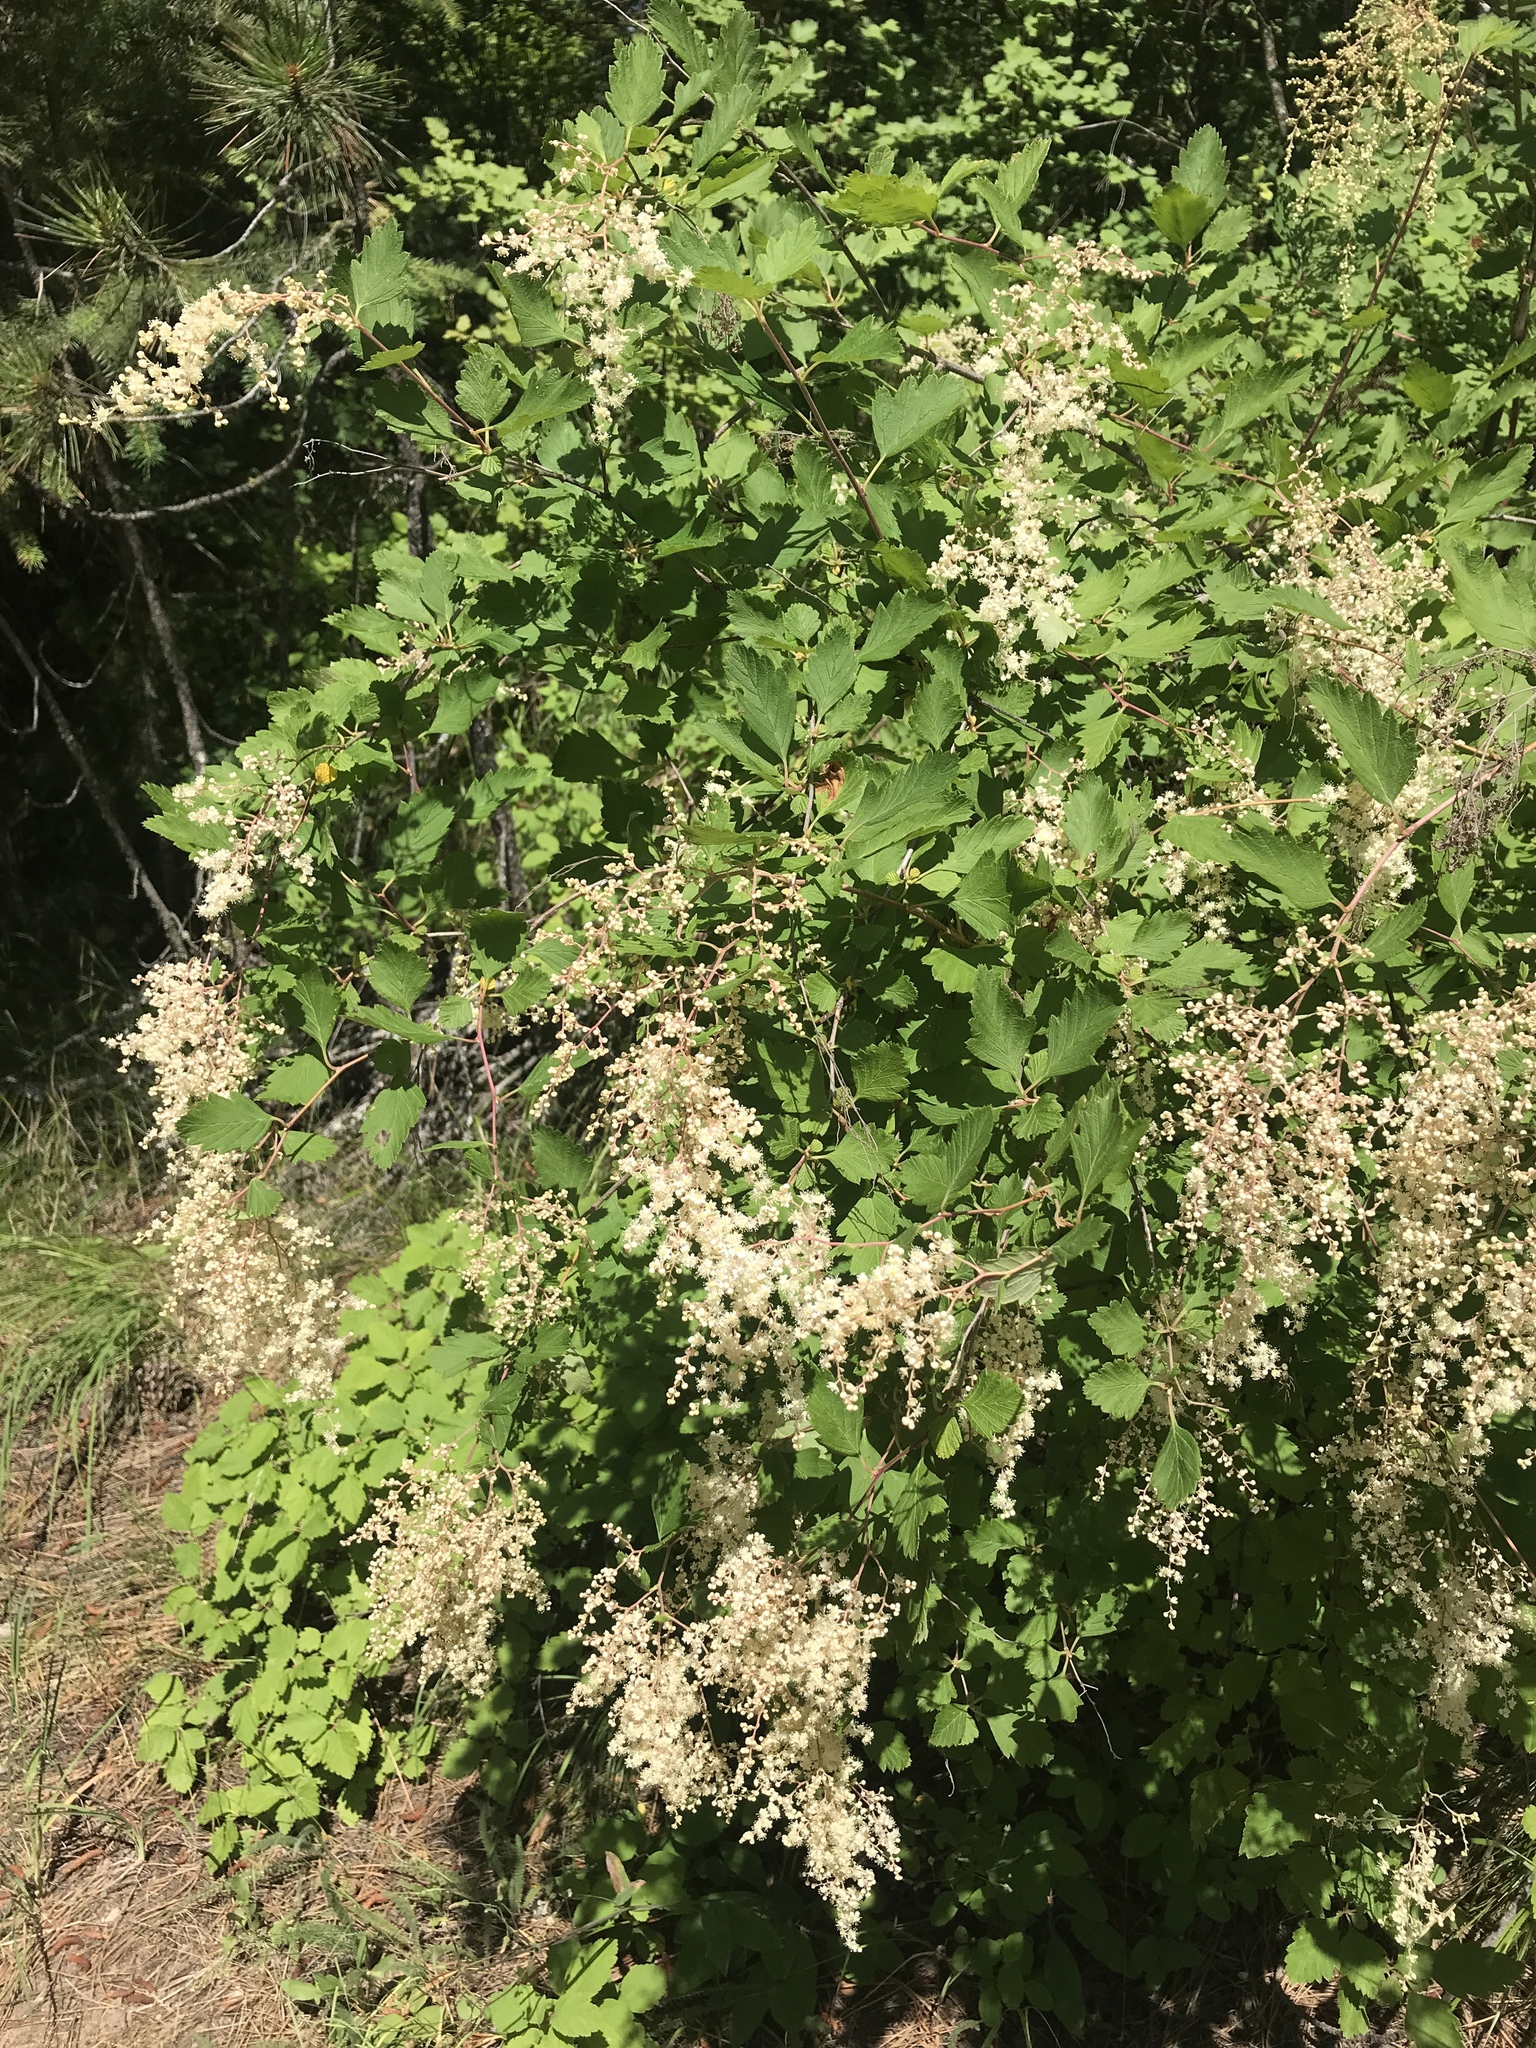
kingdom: Plantae
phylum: Tracheophyta
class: Magnoliopsida
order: Rosales
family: Rosaceae
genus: Holodiscus
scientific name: Holodiscus discolor
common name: Oceanspray
